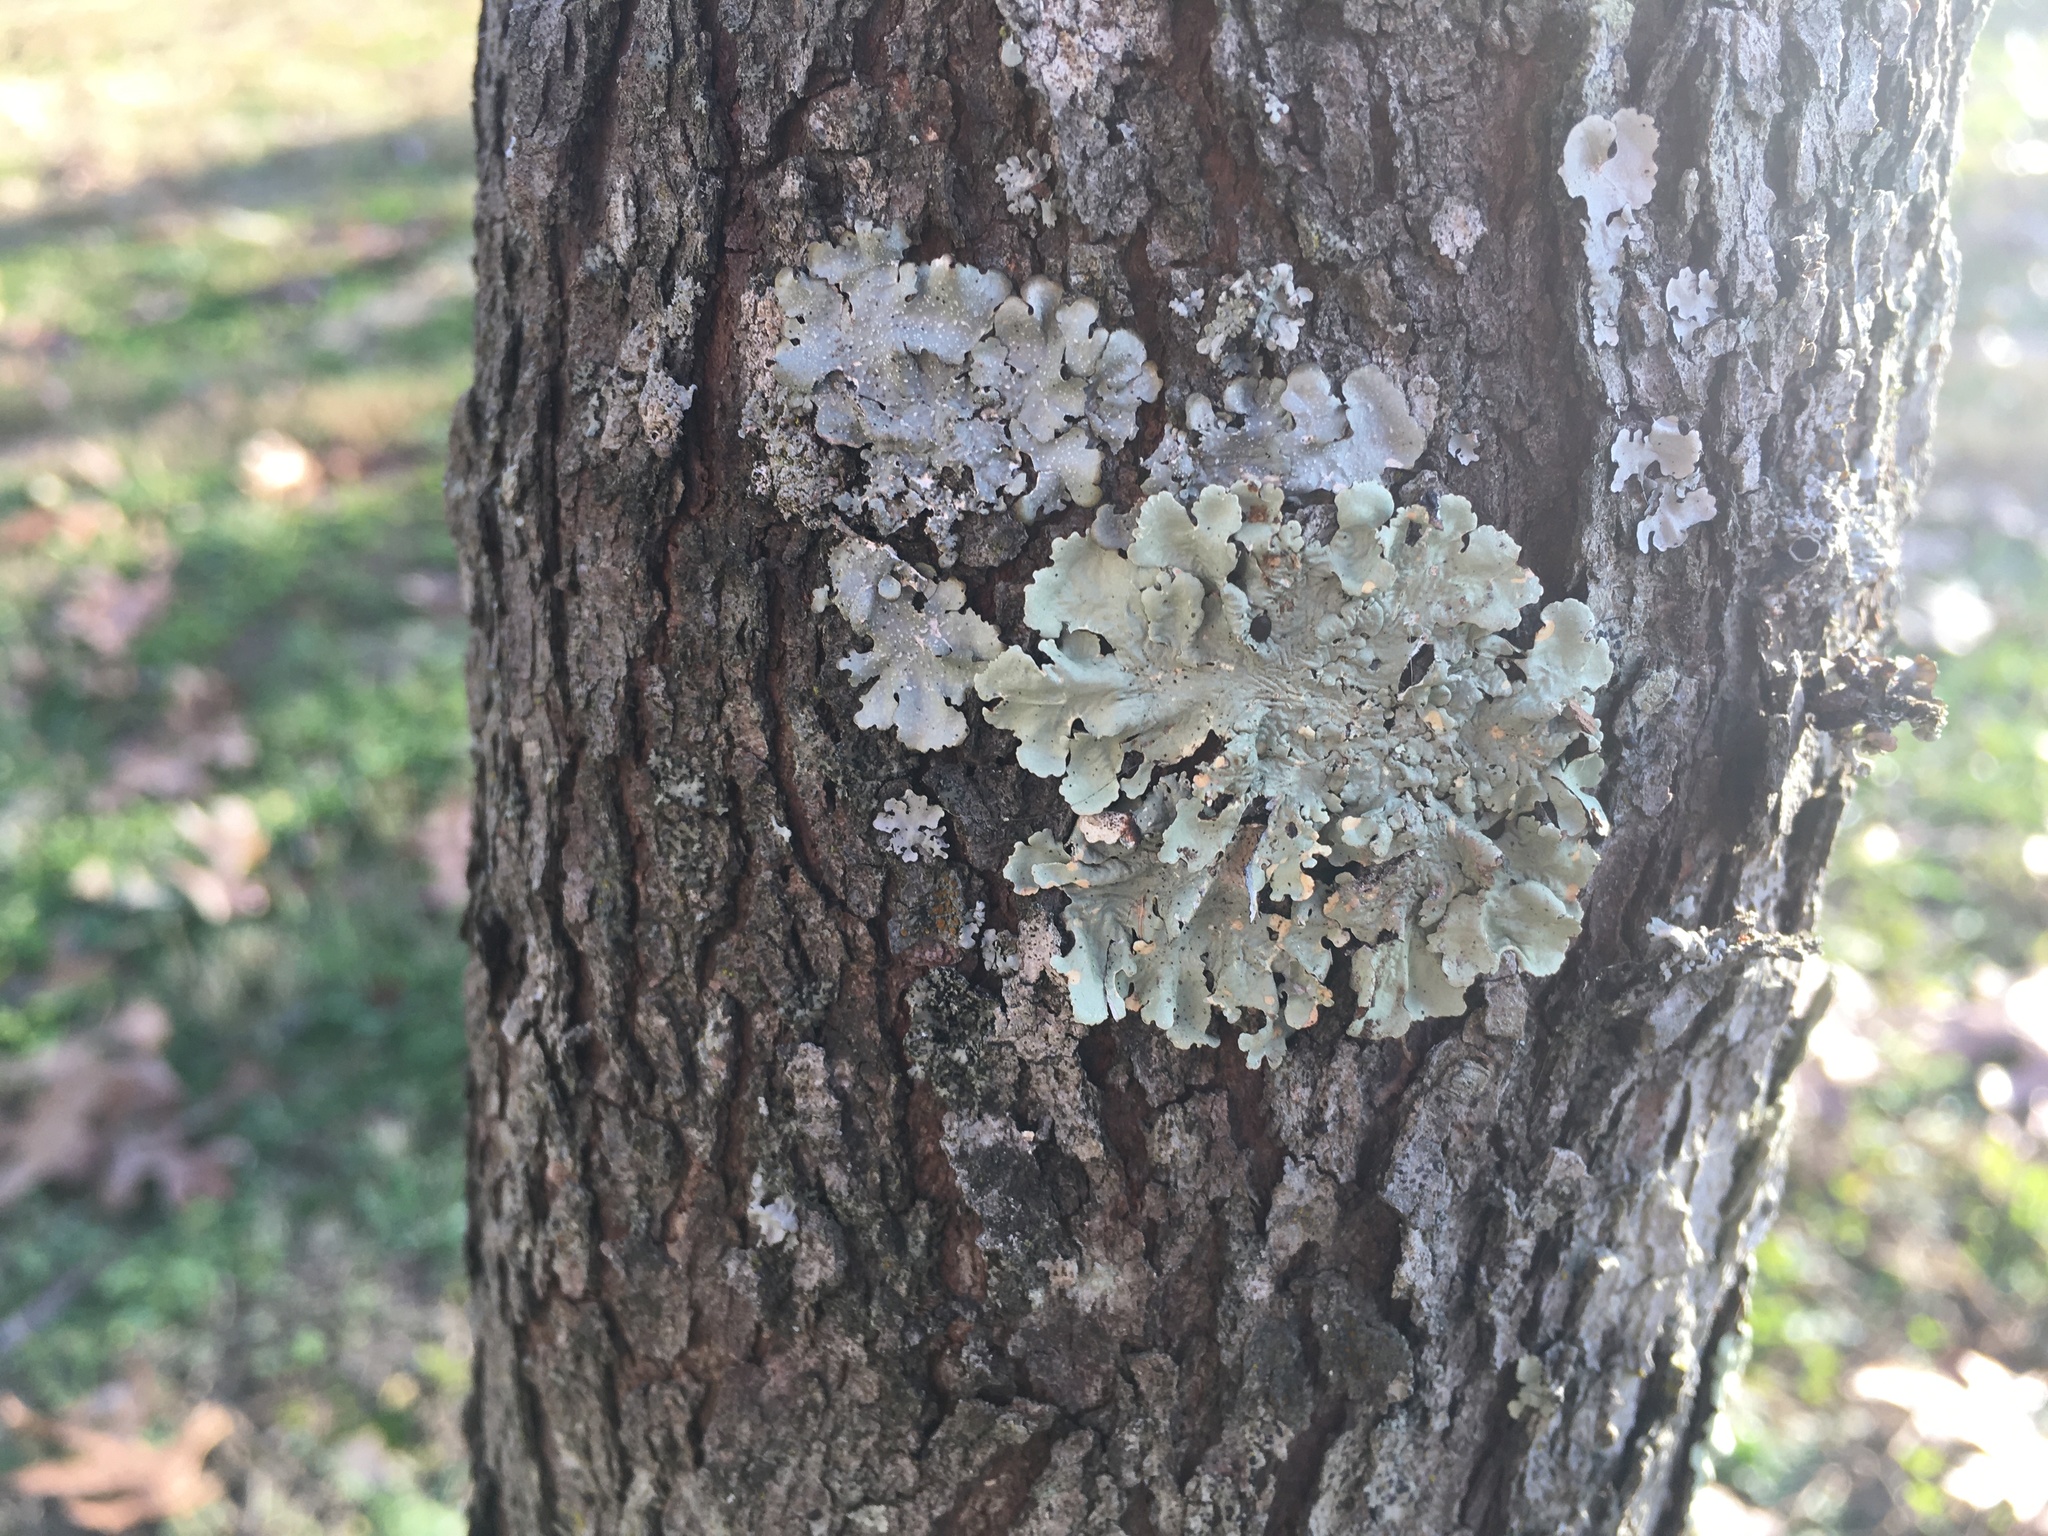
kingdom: Fungi
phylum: Ascomycota
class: Lecanoromycetes
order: Lecanorales
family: Parmeliaceae
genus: Flavoparmelia
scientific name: Flavoparmelia caperata
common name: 40-mile per hour lichen
